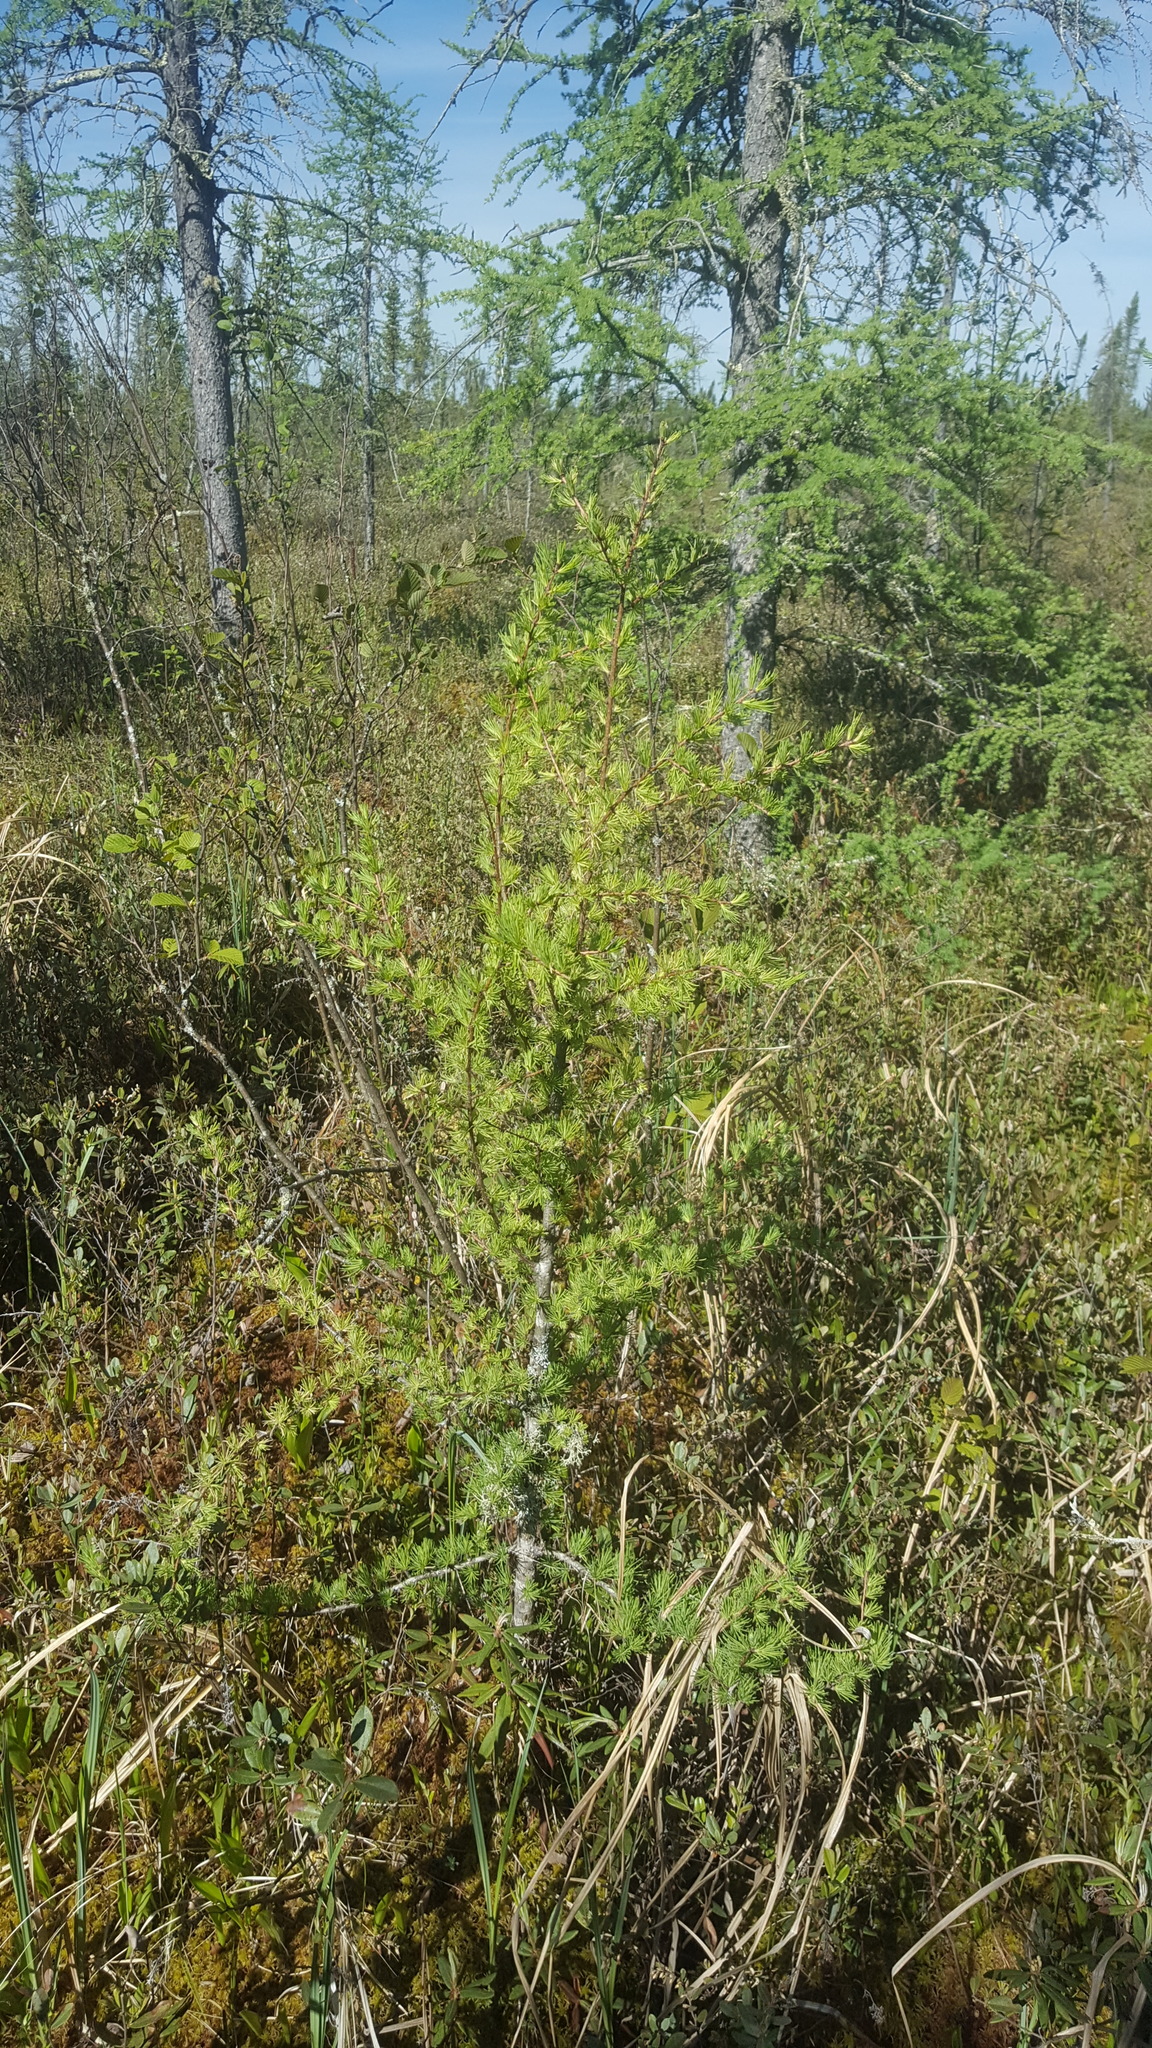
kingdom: Plantae
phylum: Tracheophyta
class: Pinopsida
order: Pinales
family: Pinaceae
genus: Larix
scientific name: Larix laricina
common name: American larch
